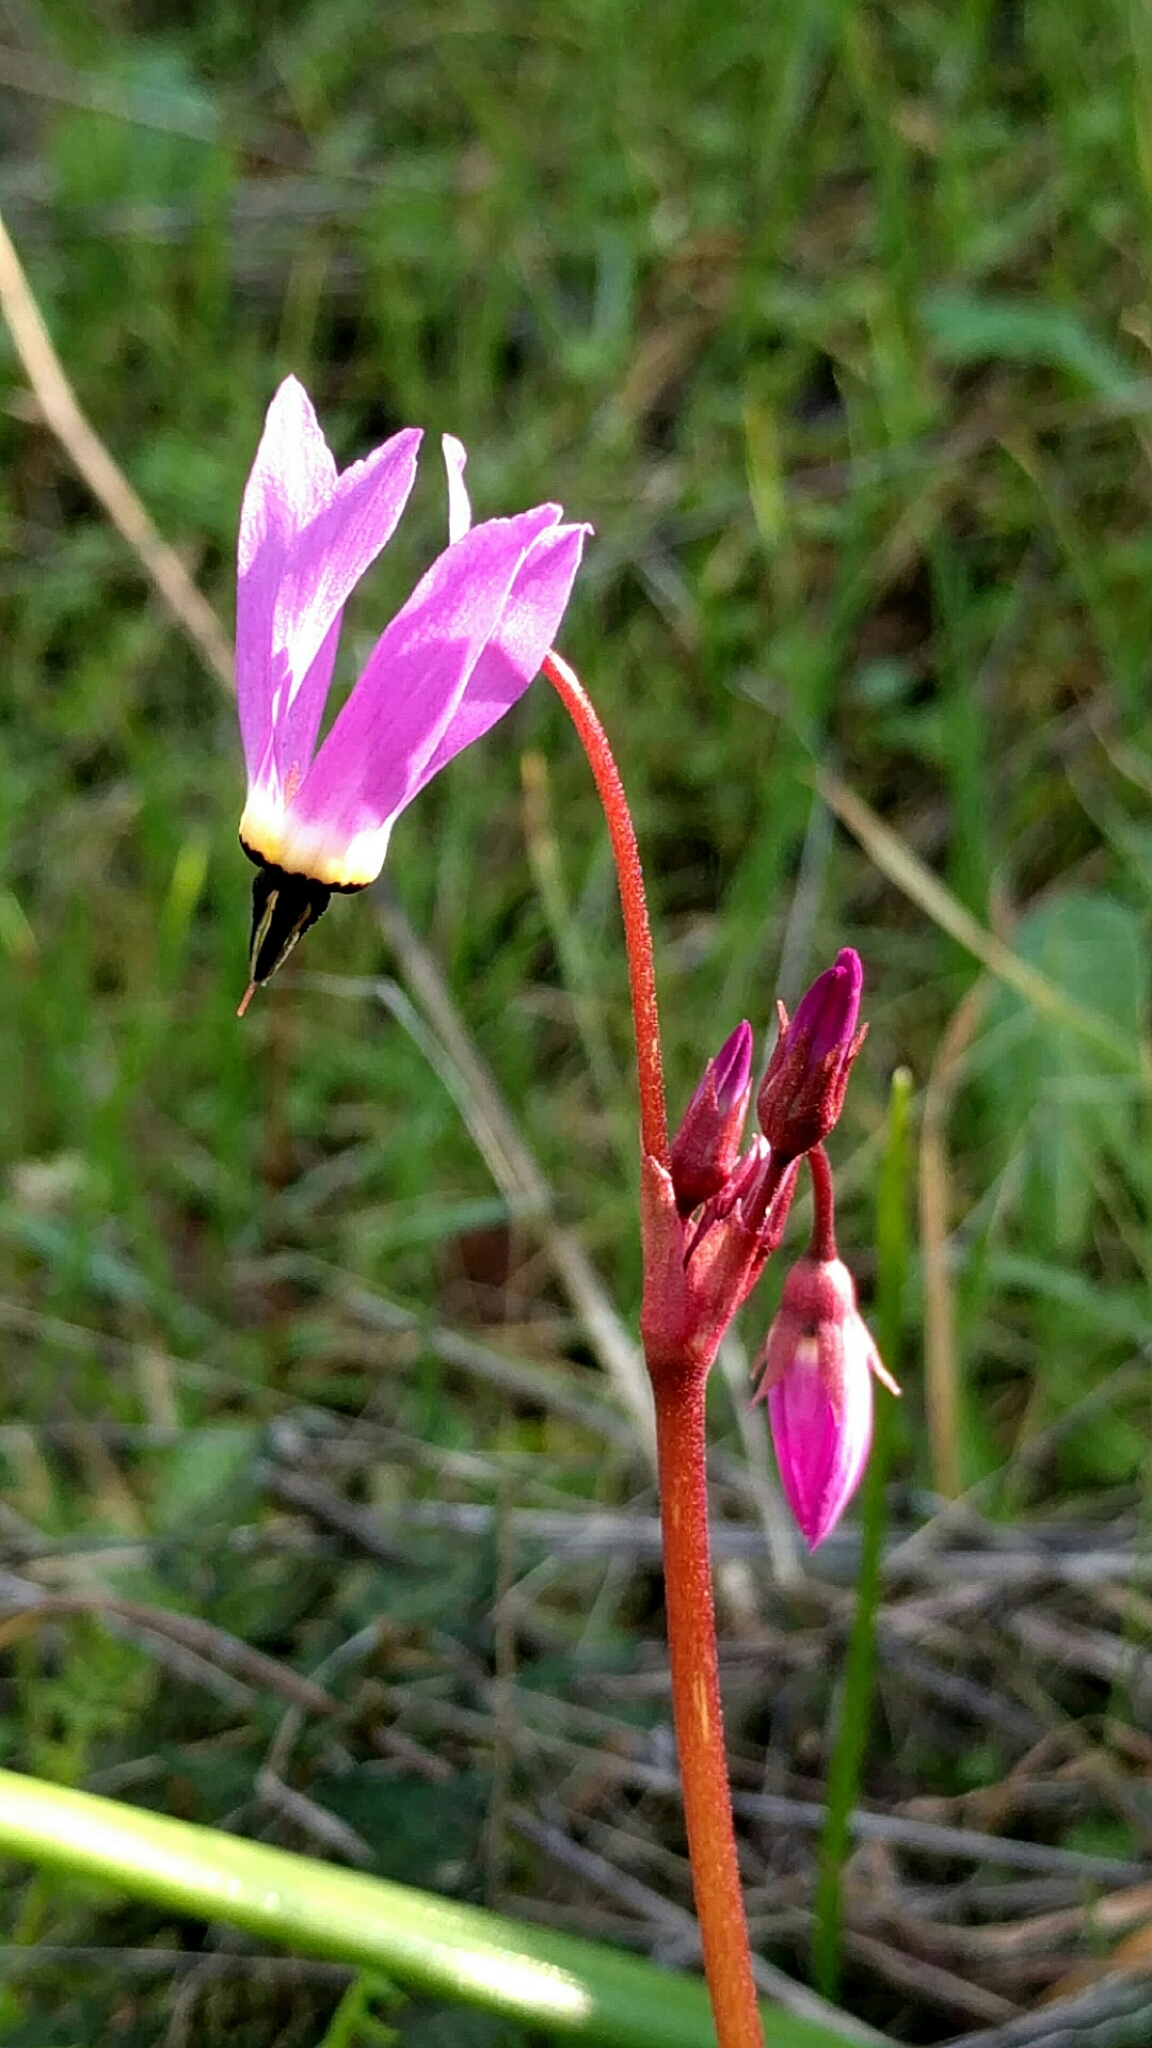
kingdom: Plantae
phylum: Tracheophyta
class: Magnoliopsida
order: Ericales
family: Primulaceae
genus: Dodecatheon
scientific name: Dodecatheon hendersonii
